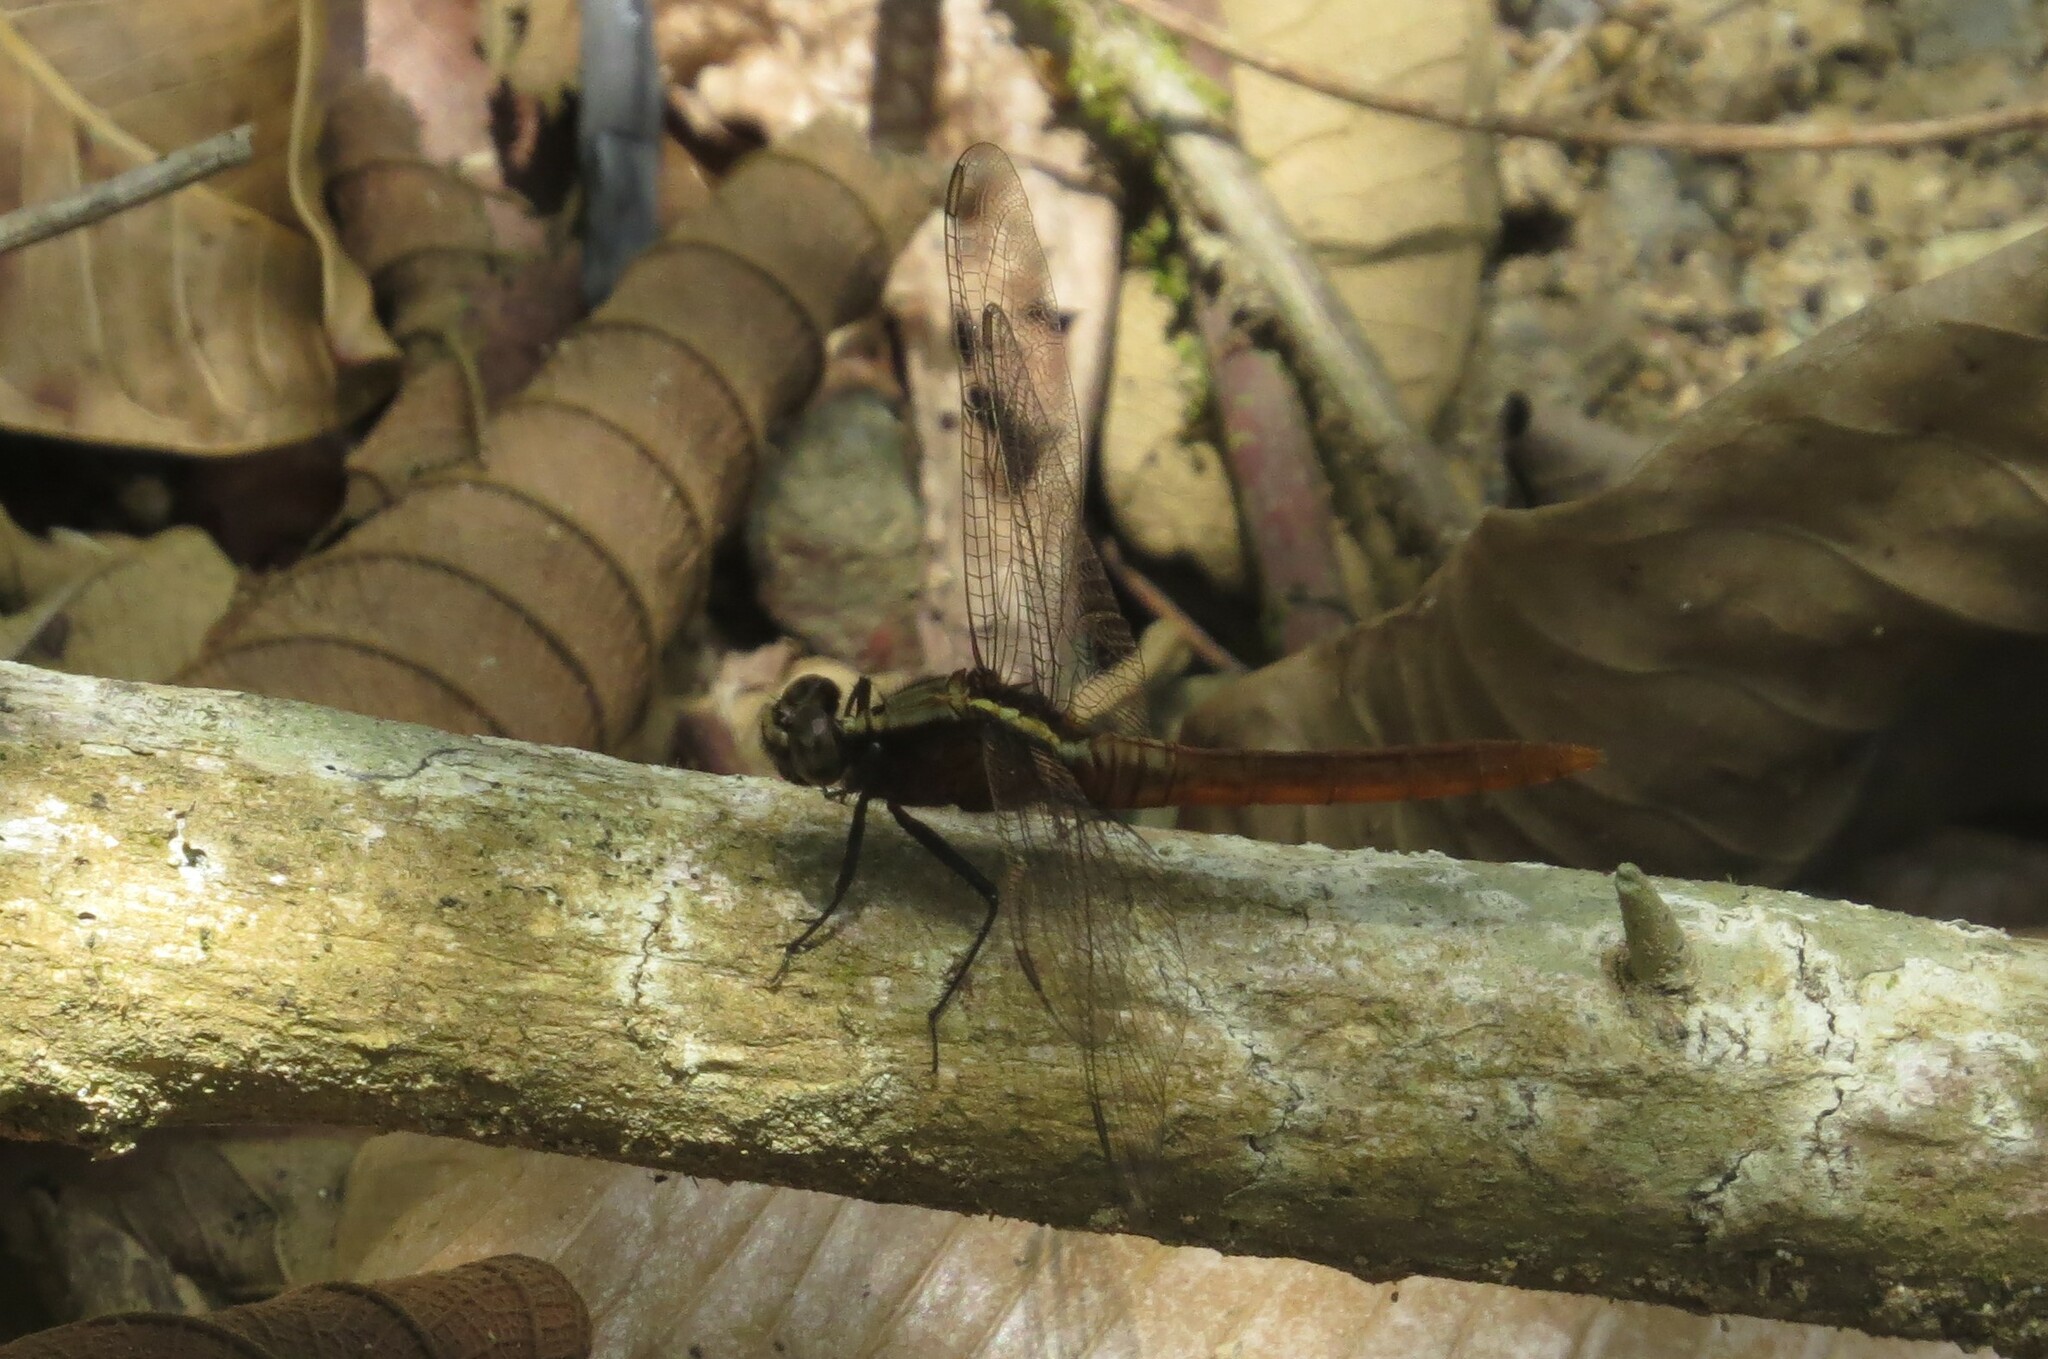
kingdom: Animalia
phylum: Arthropoda
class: Insecta
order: Odonata
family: Libellulidae
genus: Erythemis
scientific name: Erythemis peruviana
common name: Flame-tailed pondhawk
